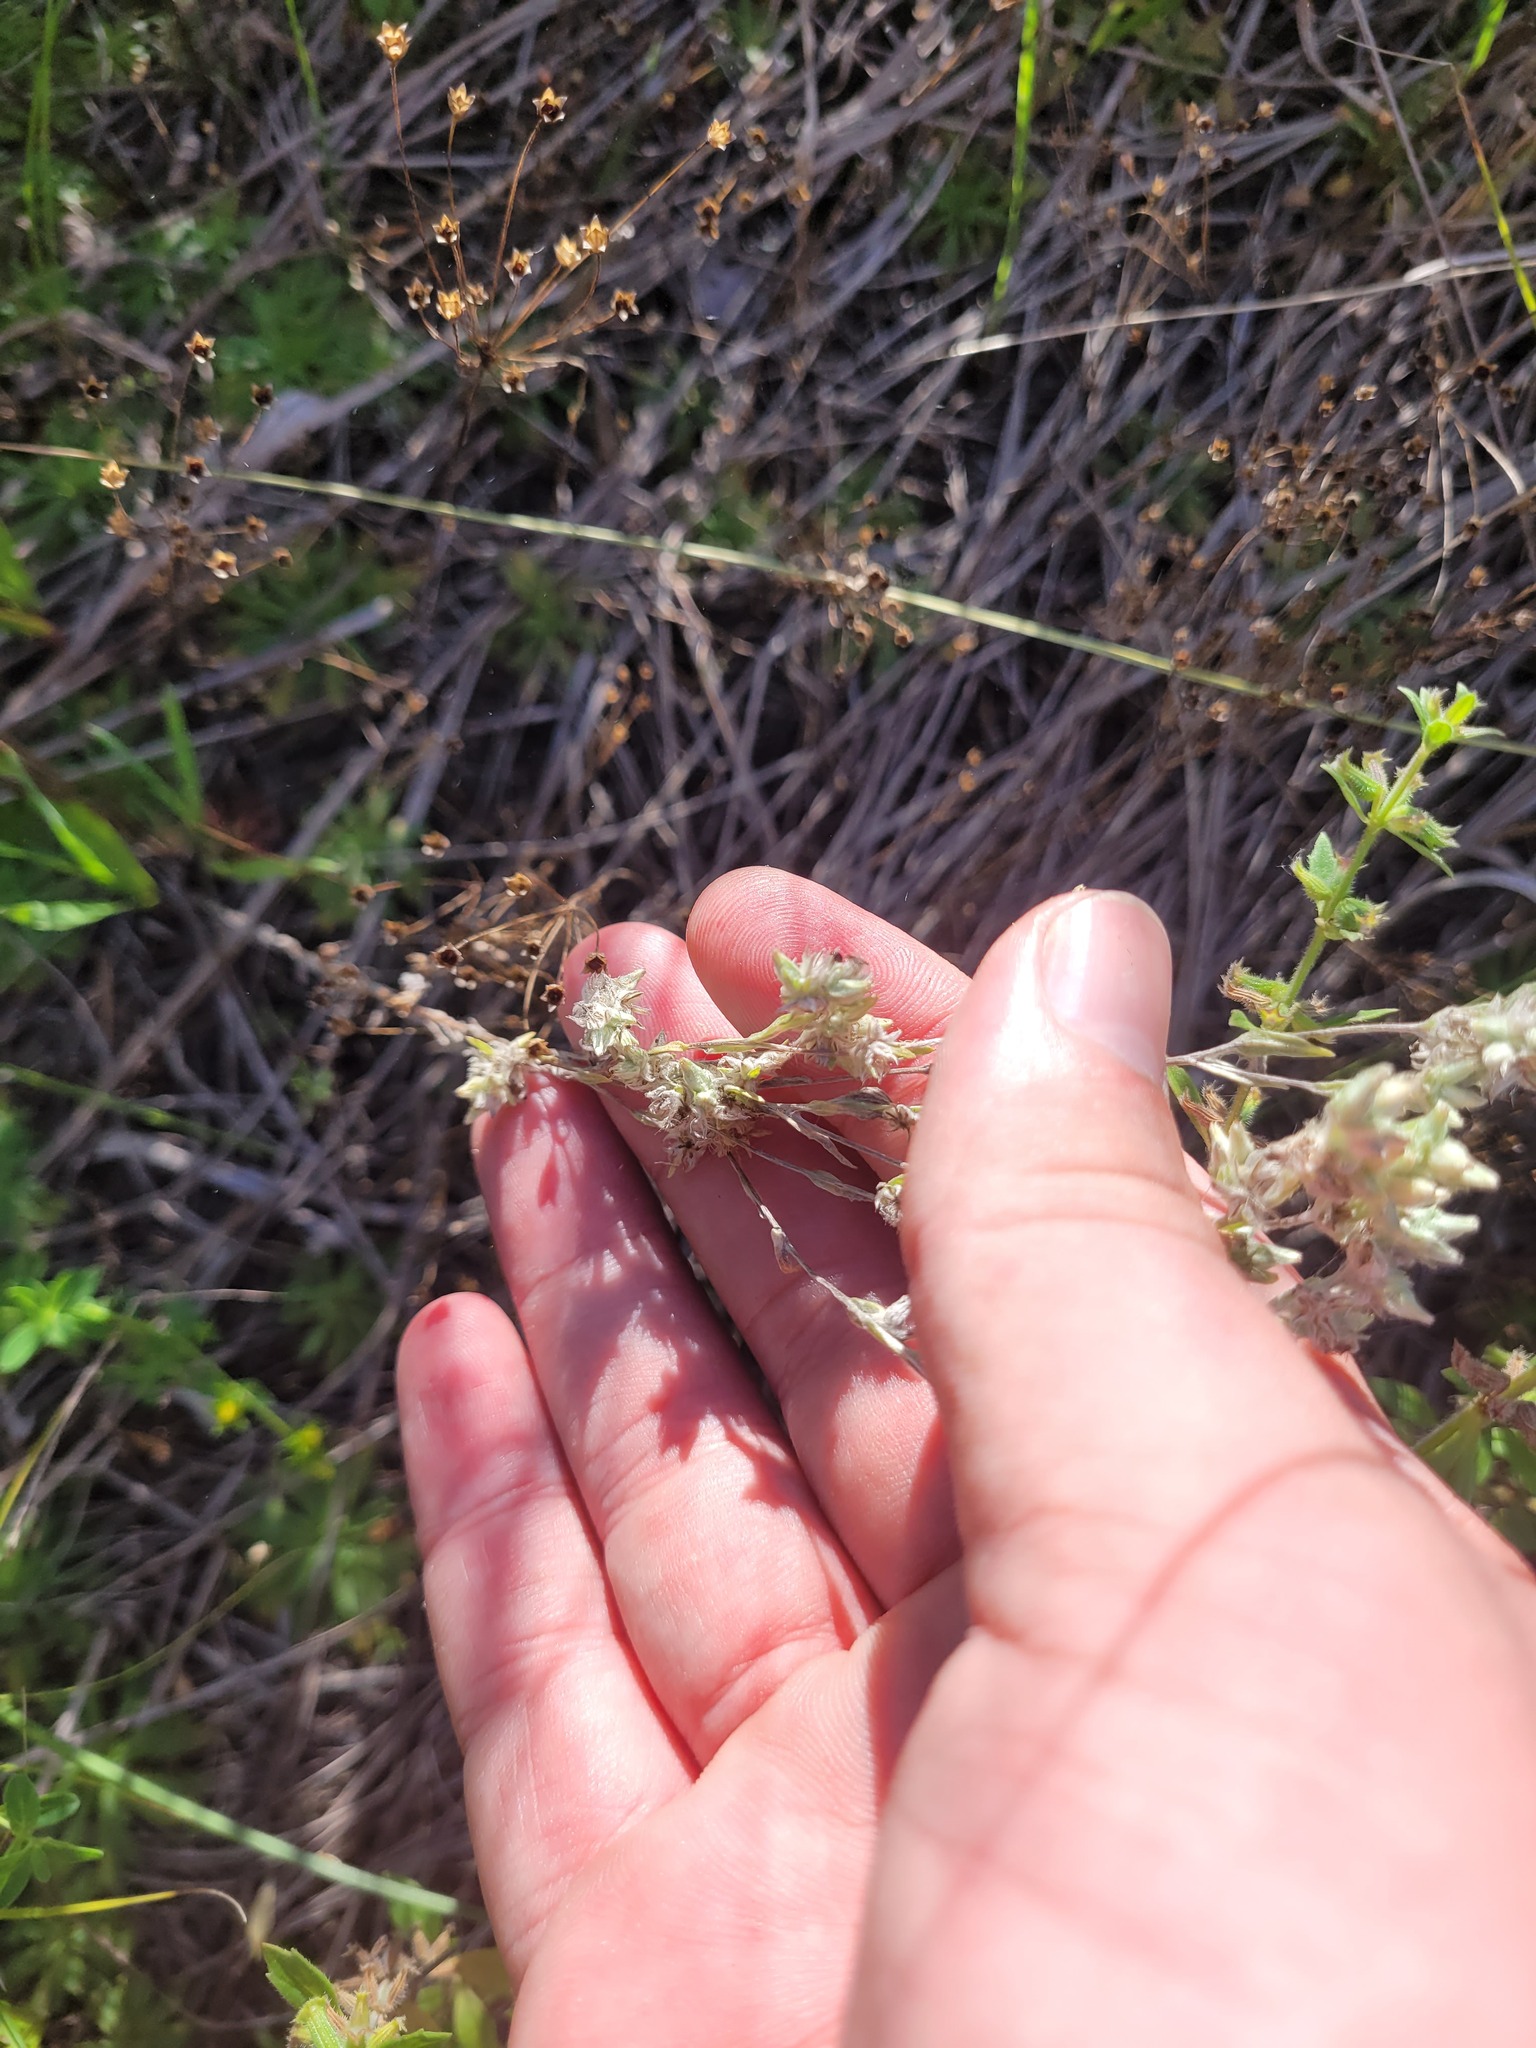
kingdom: Plantae
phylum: Tracheophyta
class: Magnoliopsida
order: Asterales
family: Asteraceae
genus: Filago
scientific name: Filago arvensis
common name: Field cudweed
